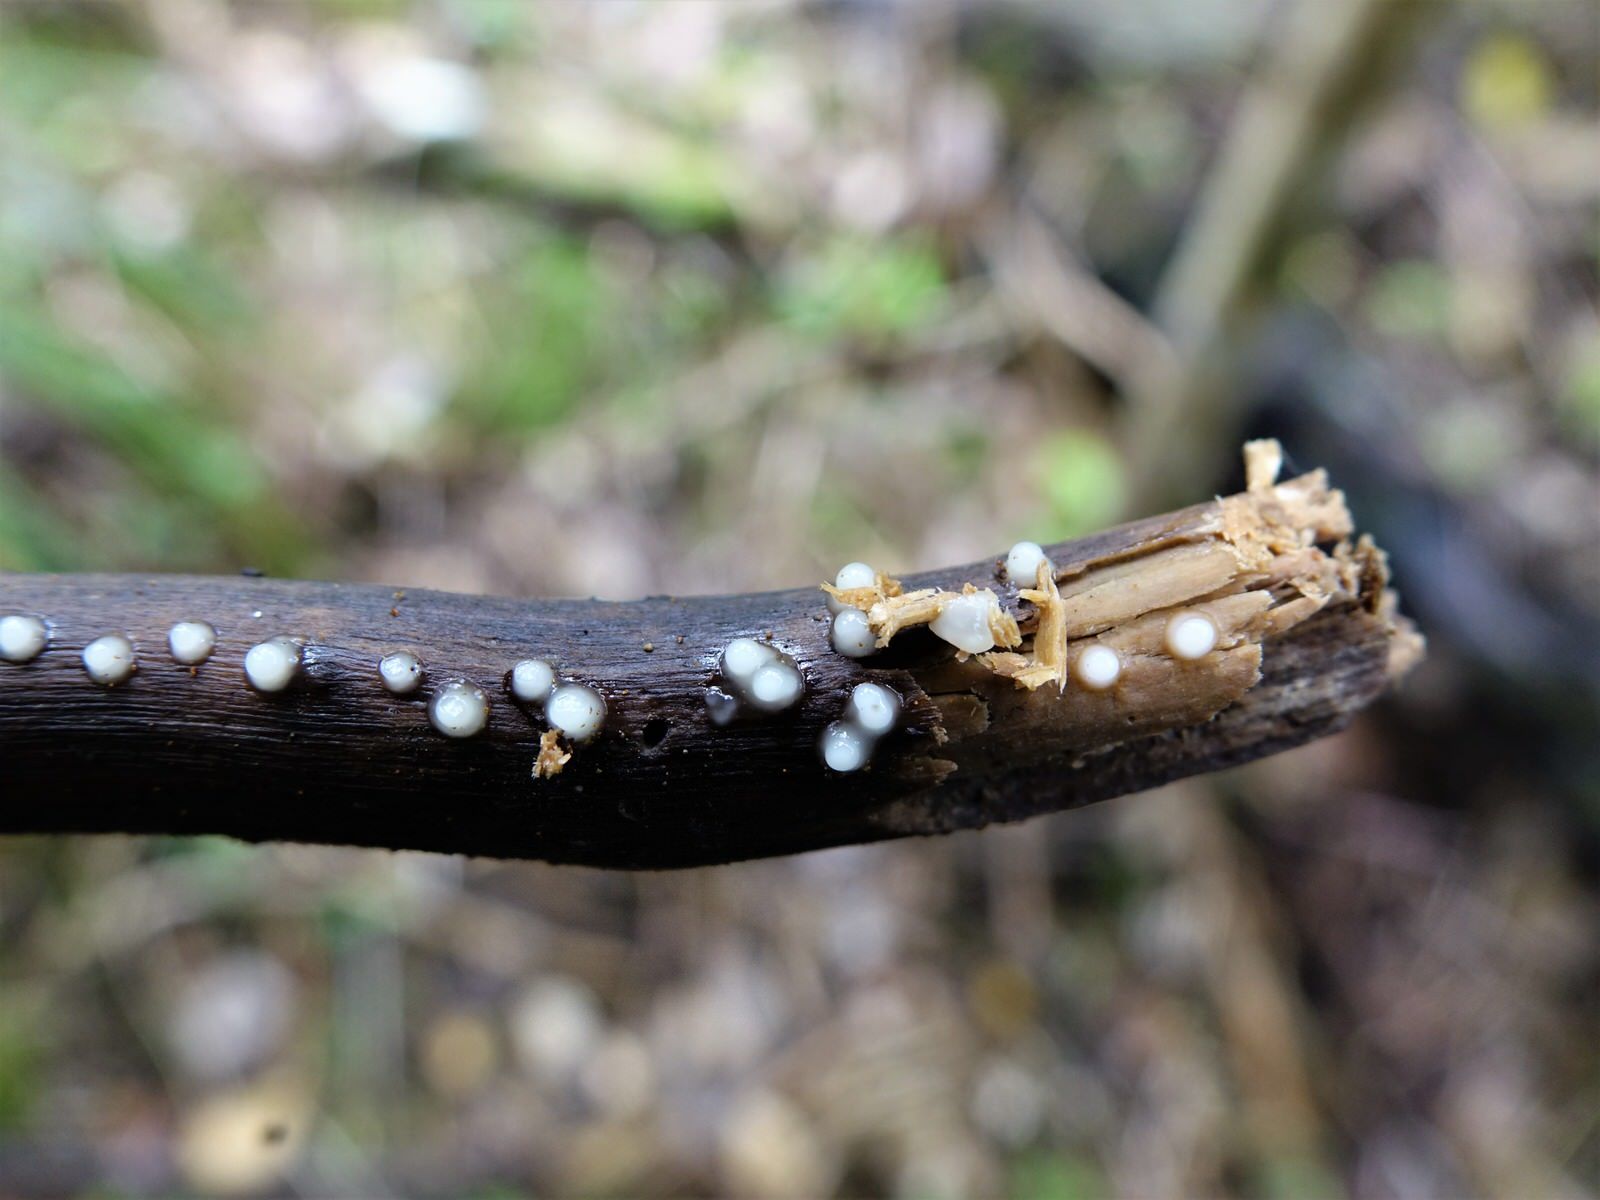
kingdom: Fungi
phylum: Basidiomycota
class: Atractiellomycetes
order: Atractiellales
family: Phleogenaceae
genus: Helicogloea
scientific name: Helicogloea compressa
